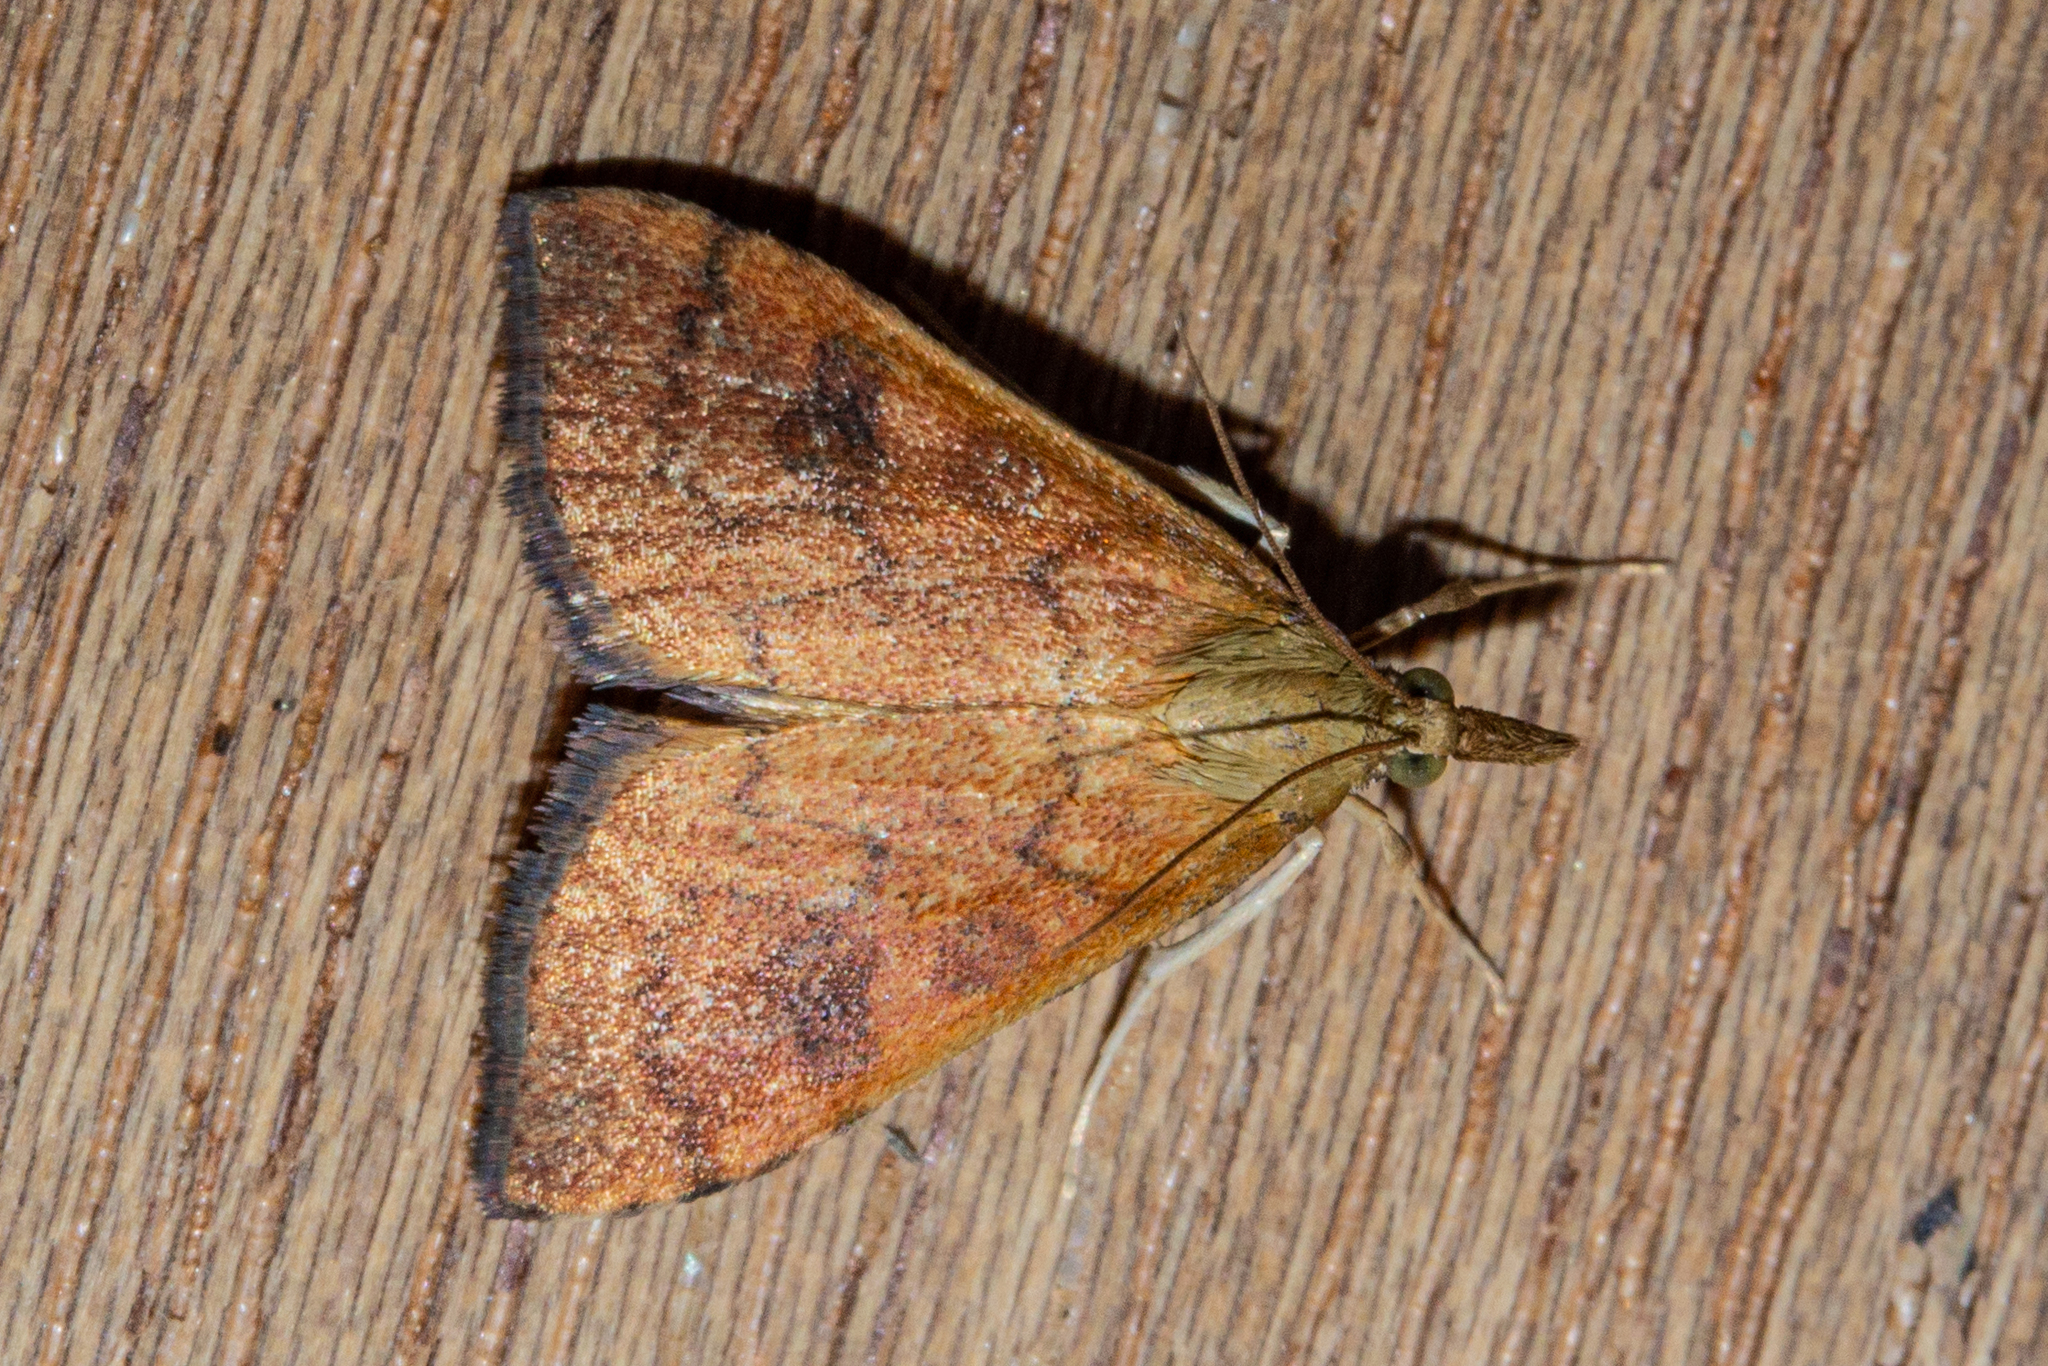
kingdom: Animalia
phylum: Arthropoda
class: Insecta
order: Lepidoptera
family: Crambidae
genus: Udea
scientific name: Udea Mnesictena flavidalis
